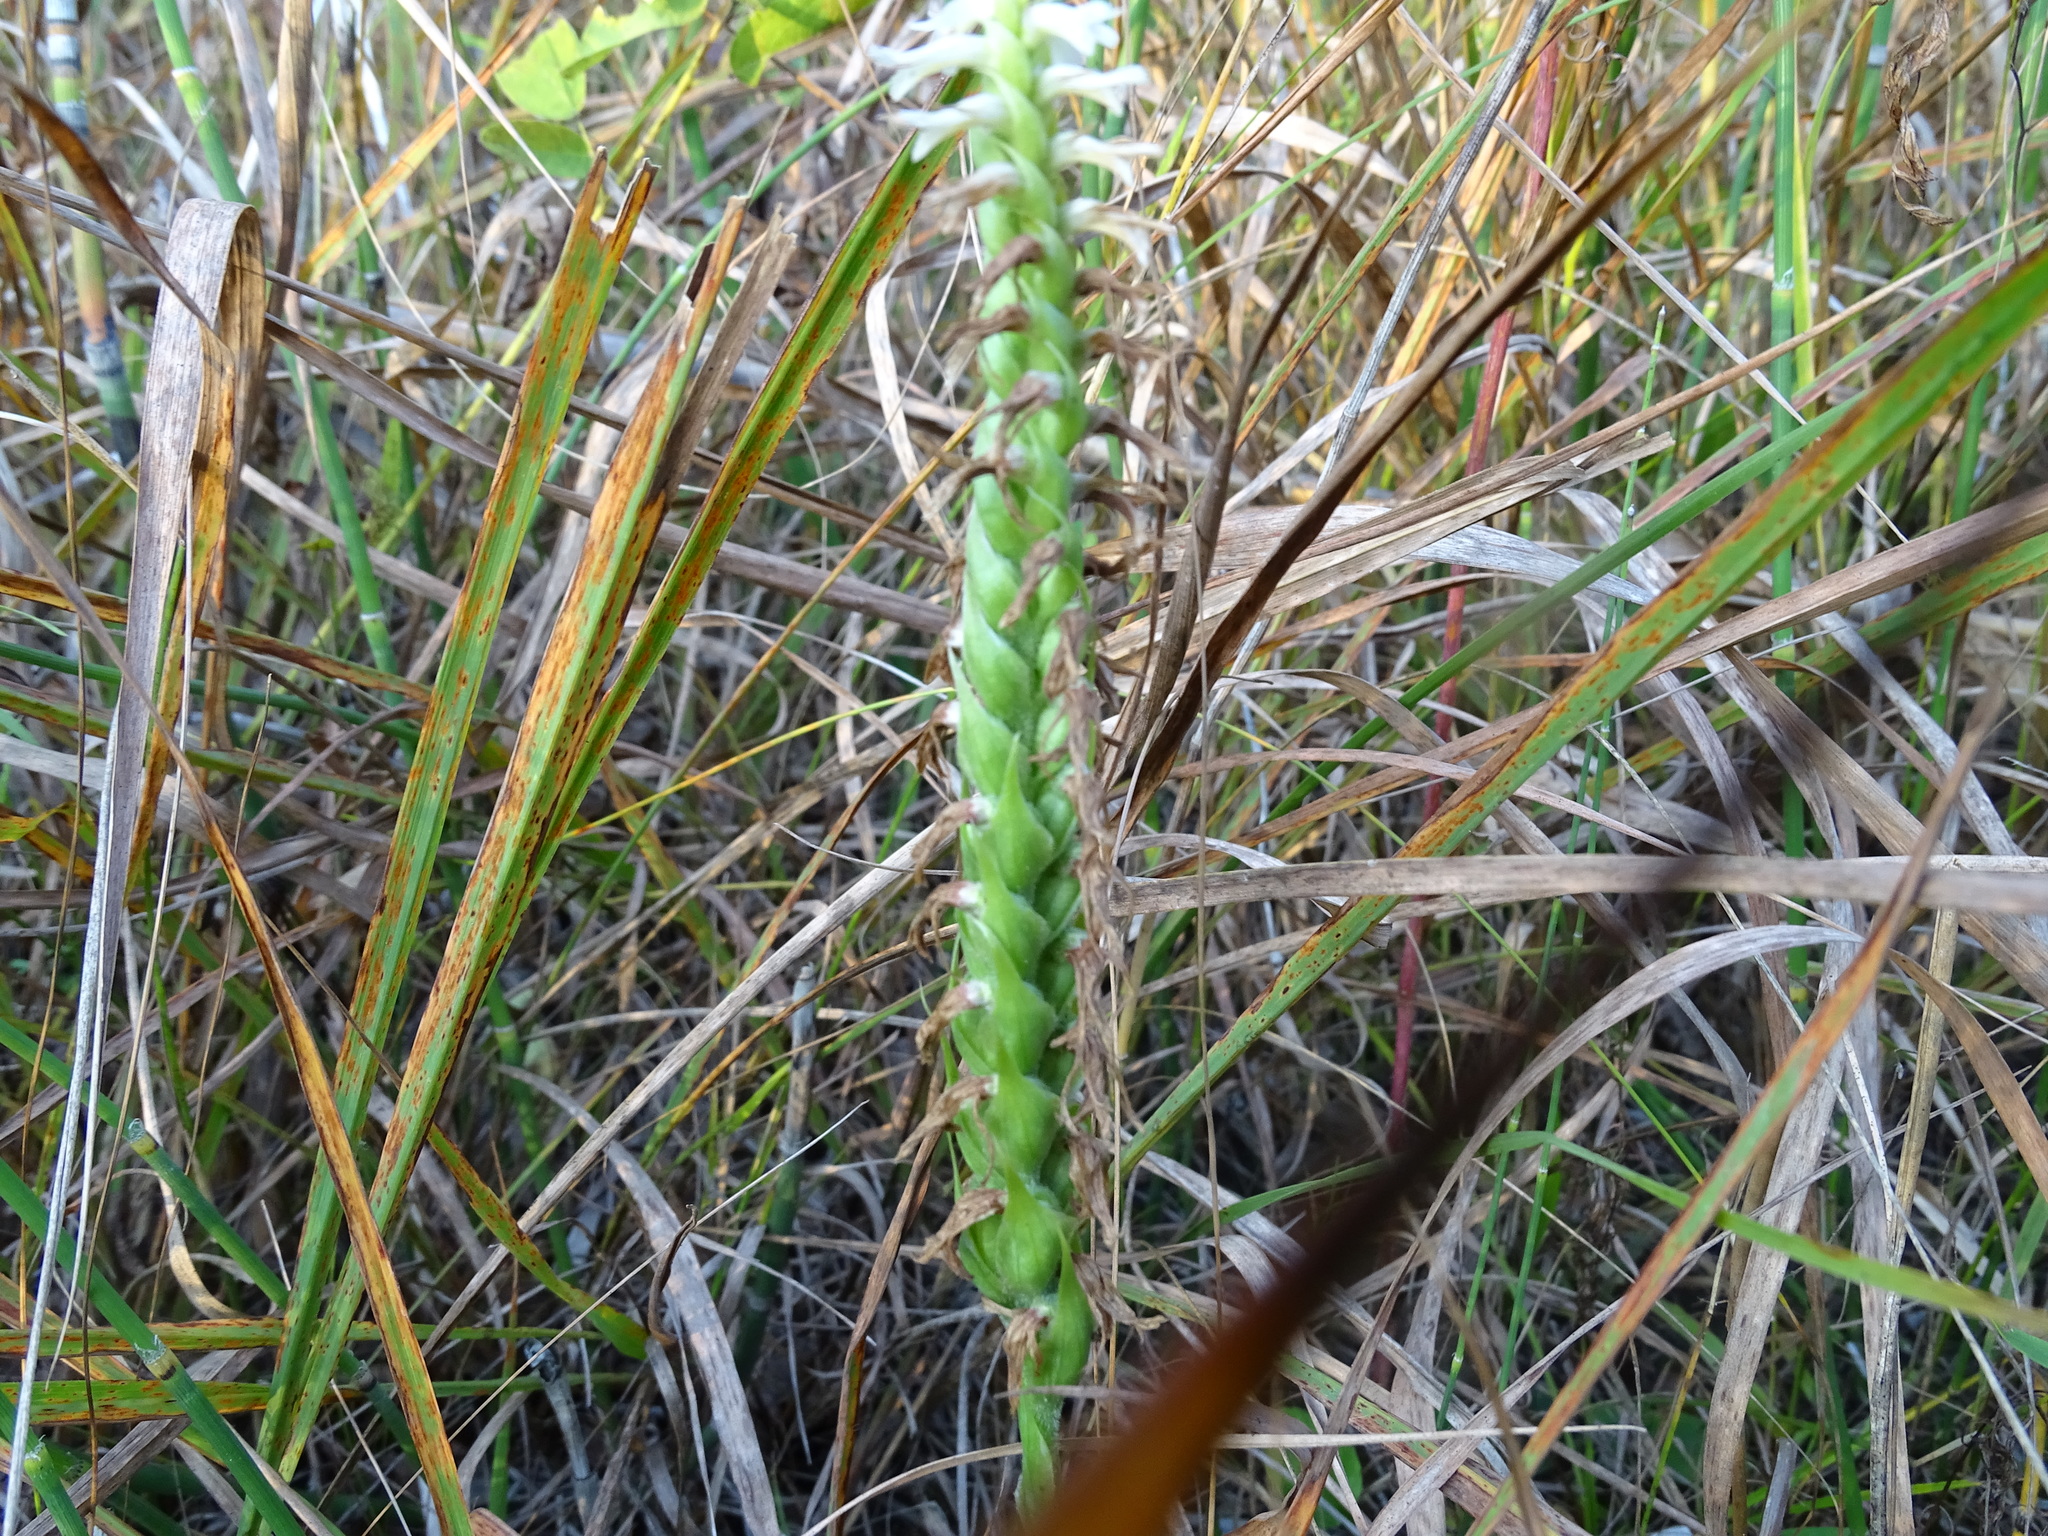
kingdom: Plantae
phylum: Tracheophyta
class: Liliopsida
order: Asparagales
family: Orchidaceae
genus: Spiranthes
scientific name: Spiranthes magnicamporum
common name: Great plains ladies'-tresses
